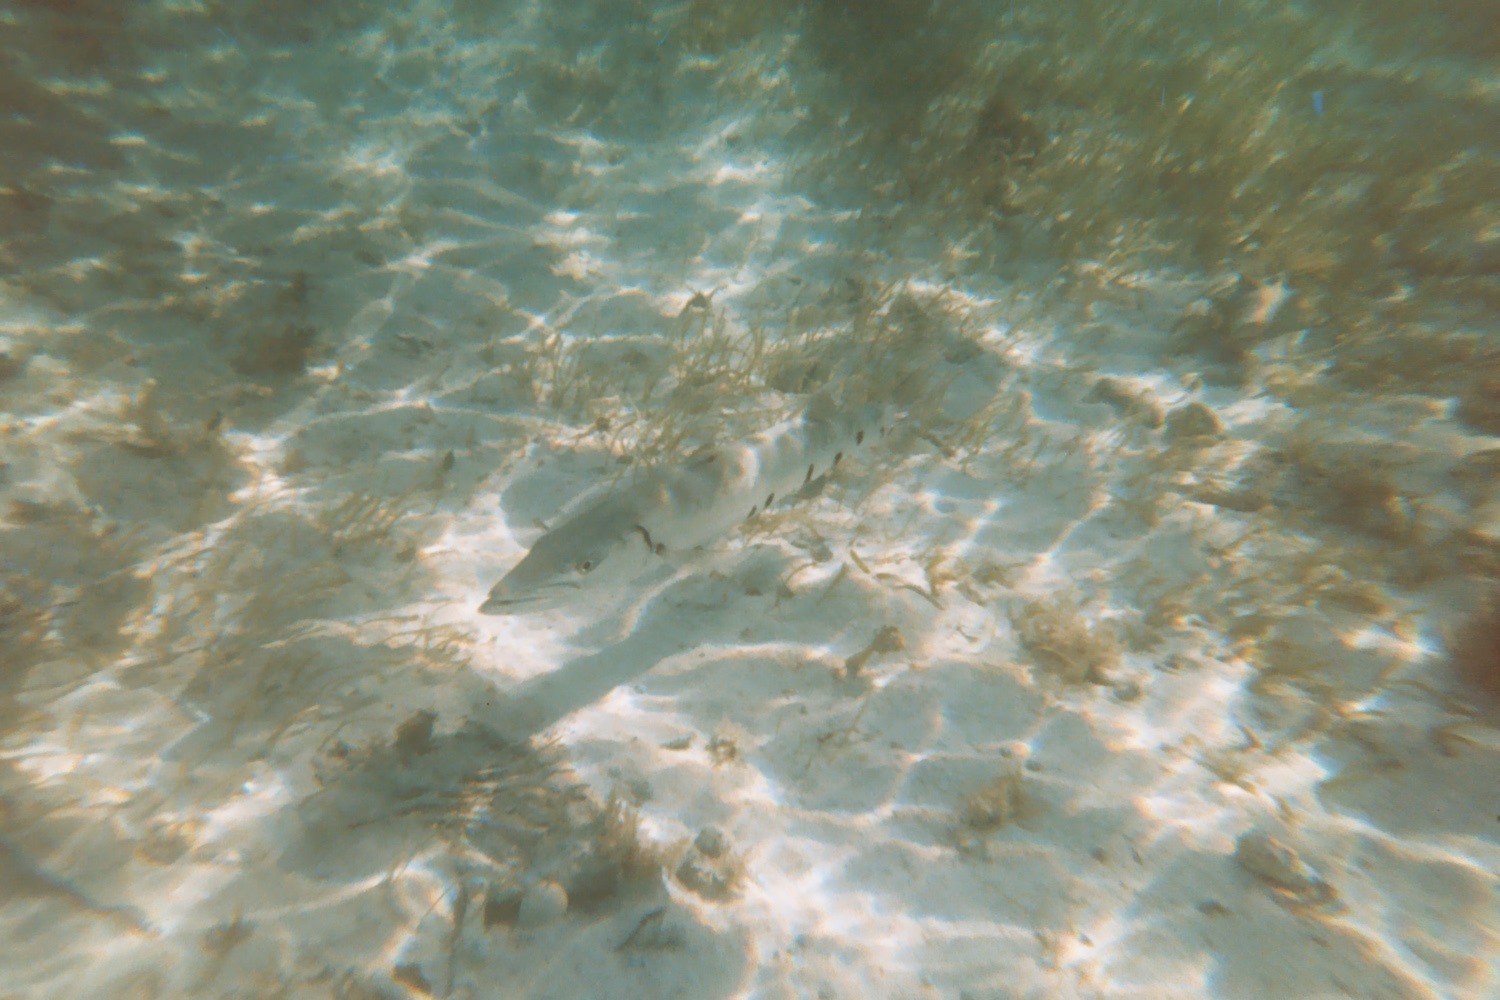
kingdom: Animalia
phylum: Chordata
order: Perciformes
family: Sphyraenidae
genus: Sphyraena
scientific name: Sphyraena barracuda
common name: Great barracuda
